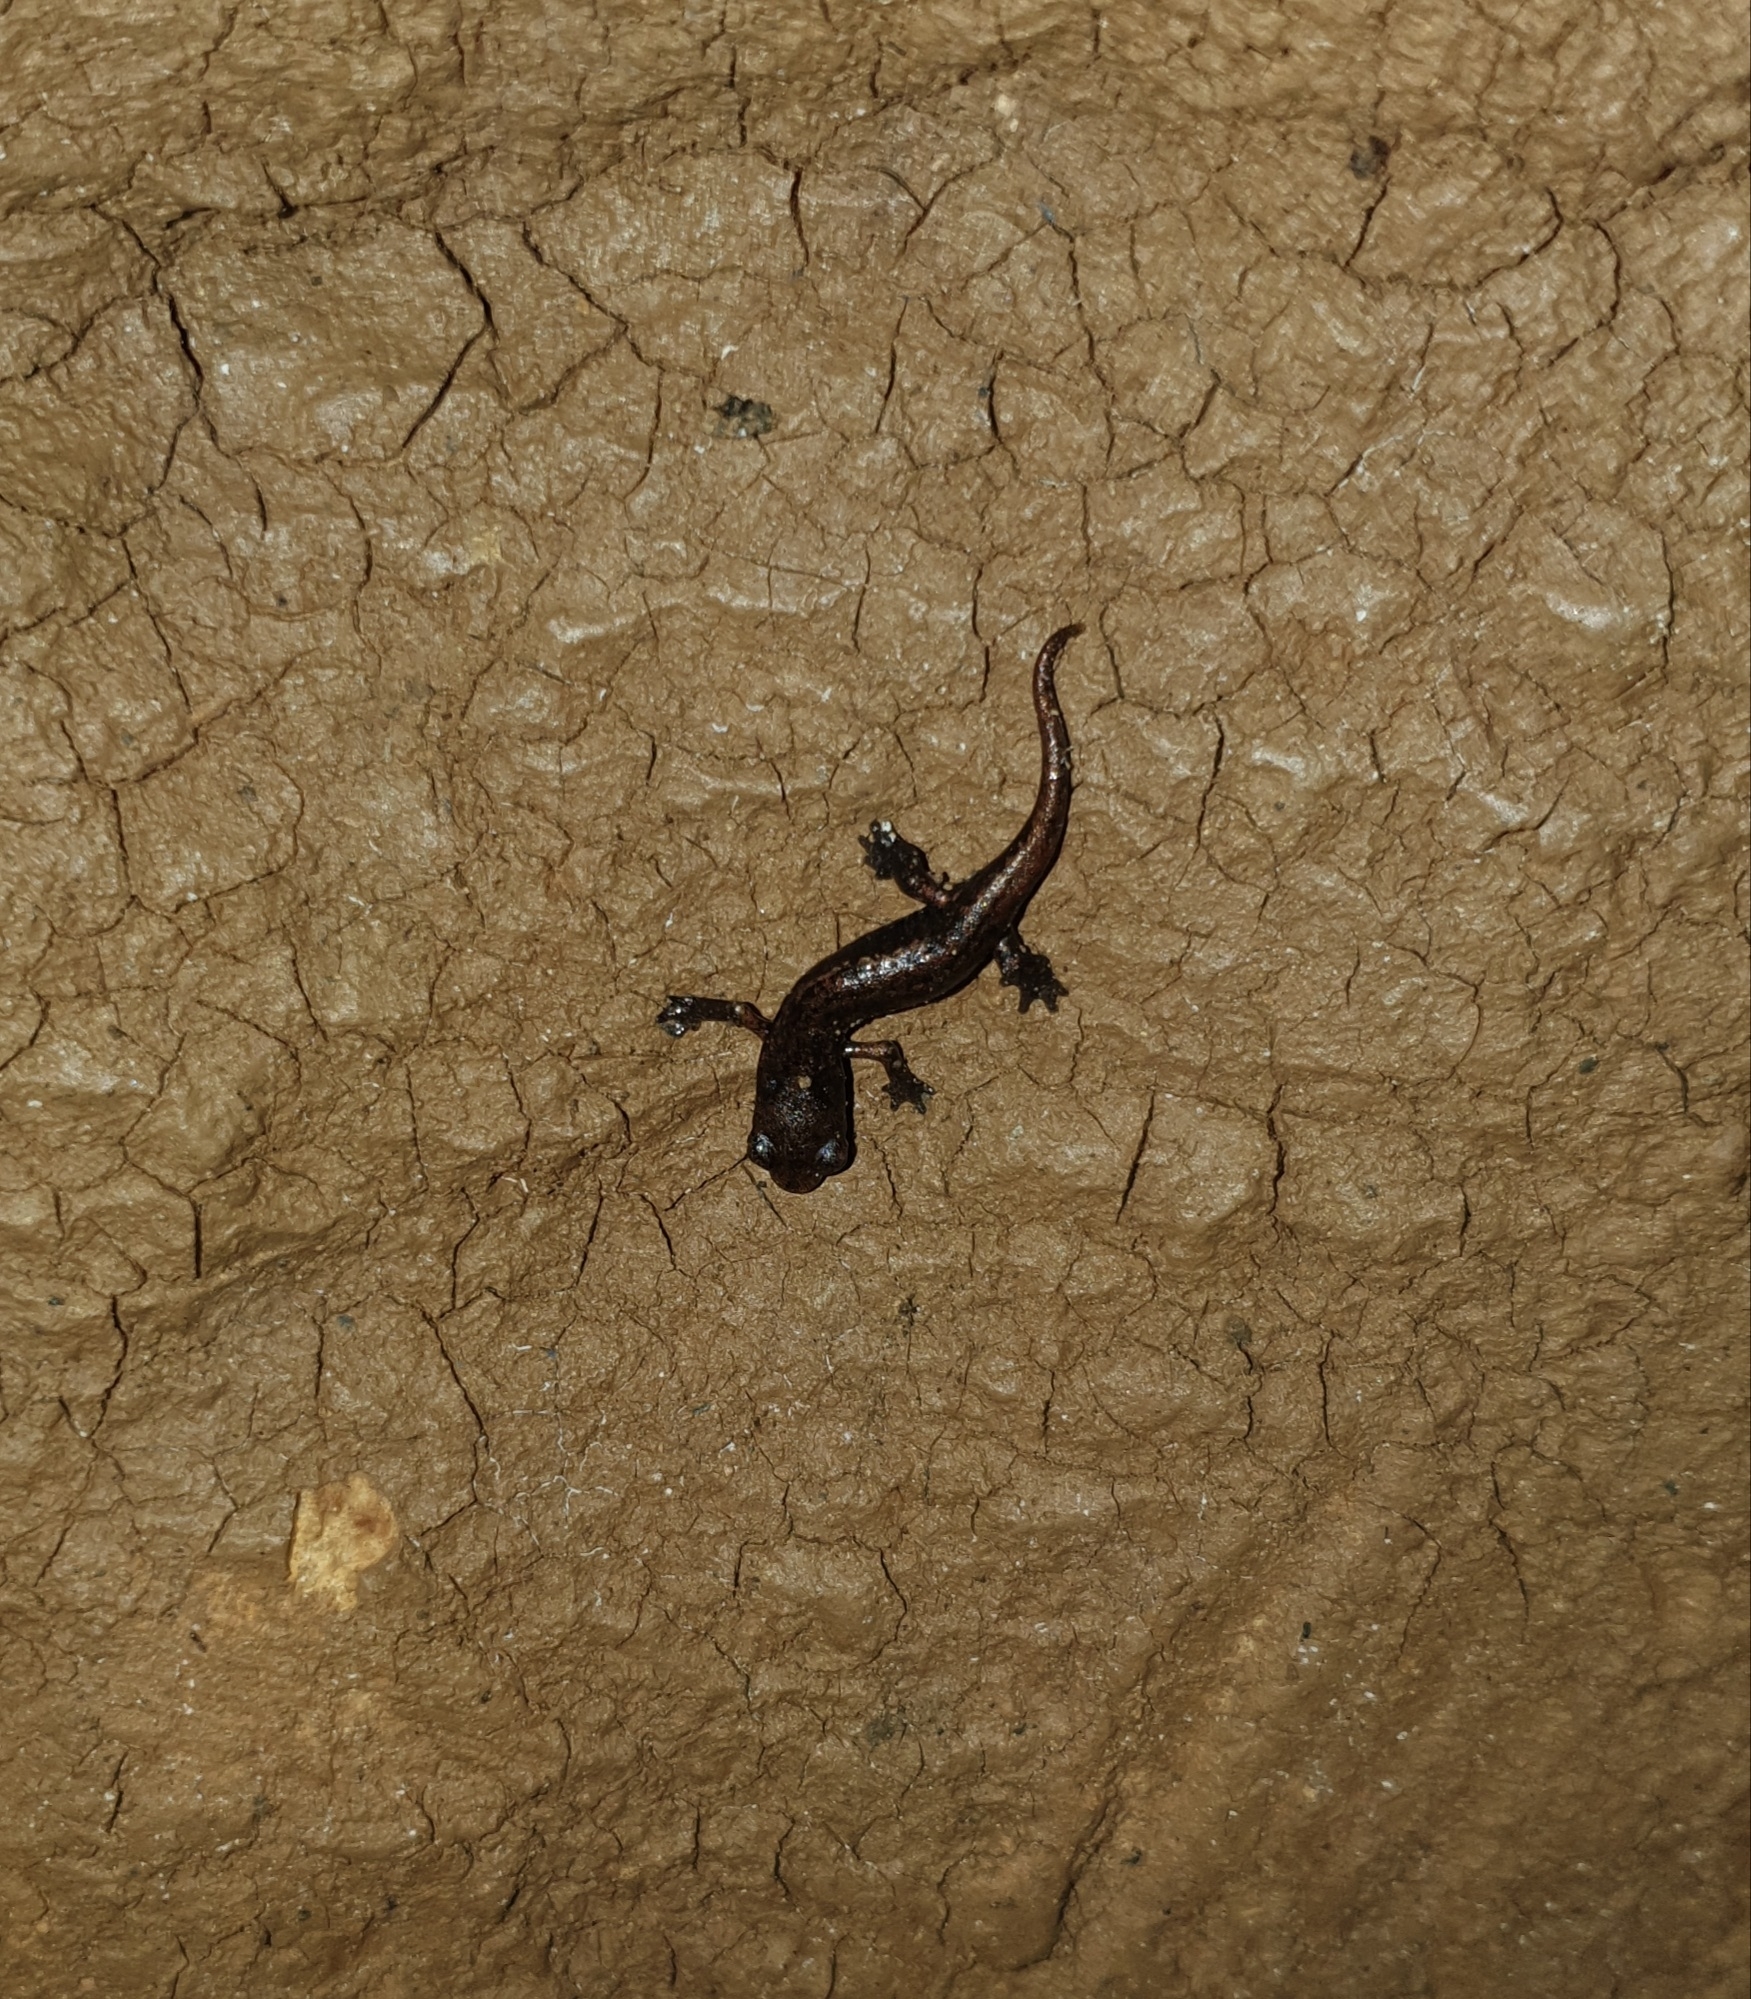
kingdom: Animalia
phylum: Chordata
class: Amphibia
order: Caudata
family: Plethodontidae
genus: Speleomantes
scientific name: Speleomantes ambrosii
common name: Ambrosi's cave salamander
